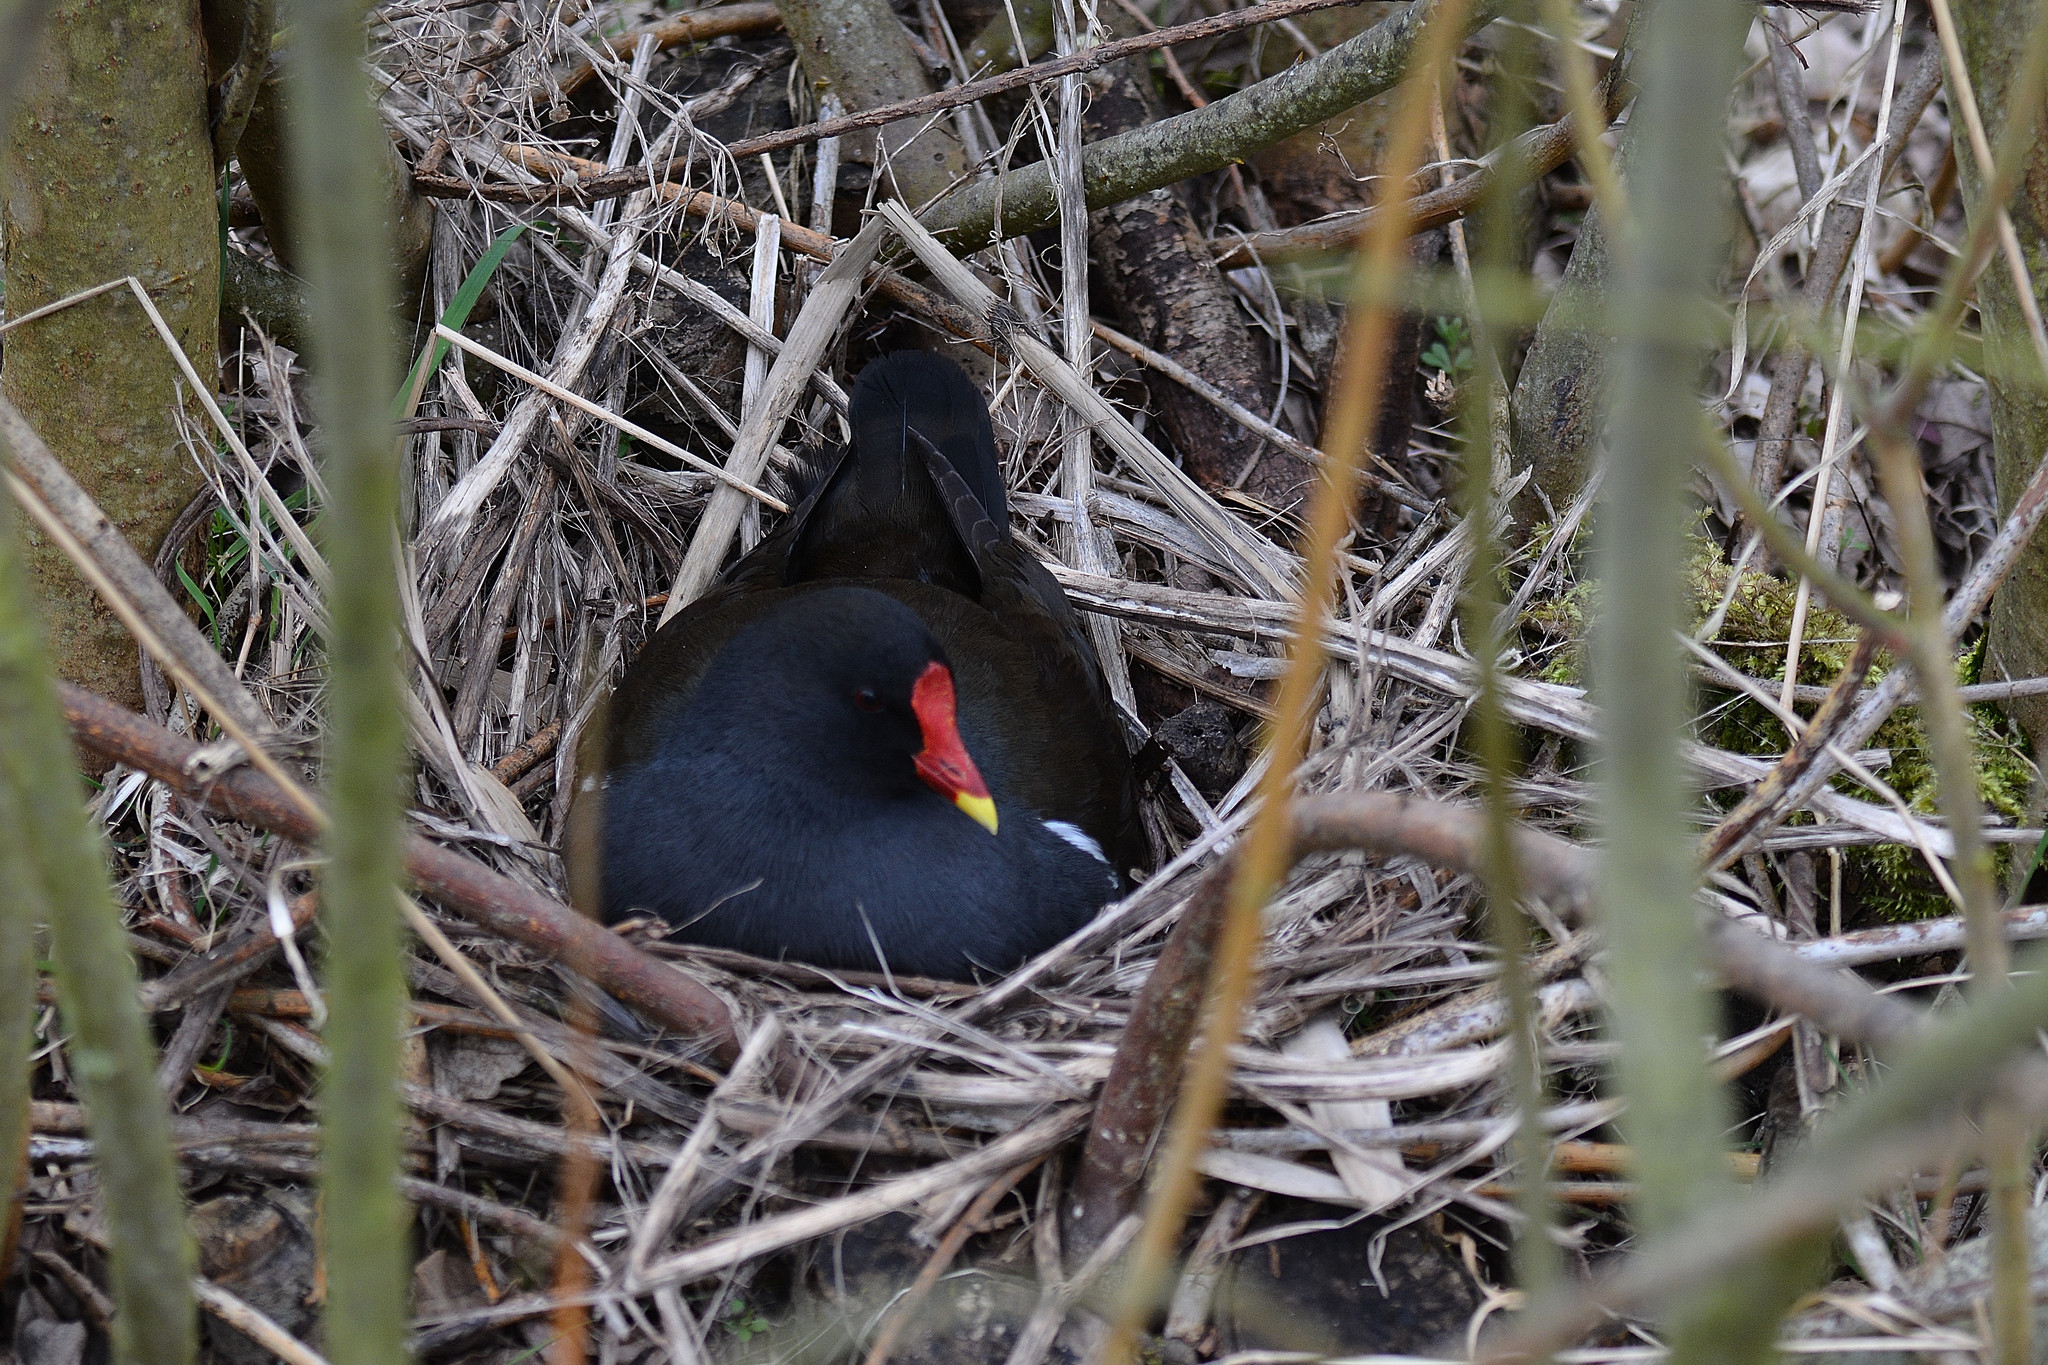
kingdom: Animalia
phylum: Chordata
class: Aves
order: Gruiformes
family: Rallidae
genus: Gallinula
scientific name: Gallinula chloropus
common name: Common moorhen
